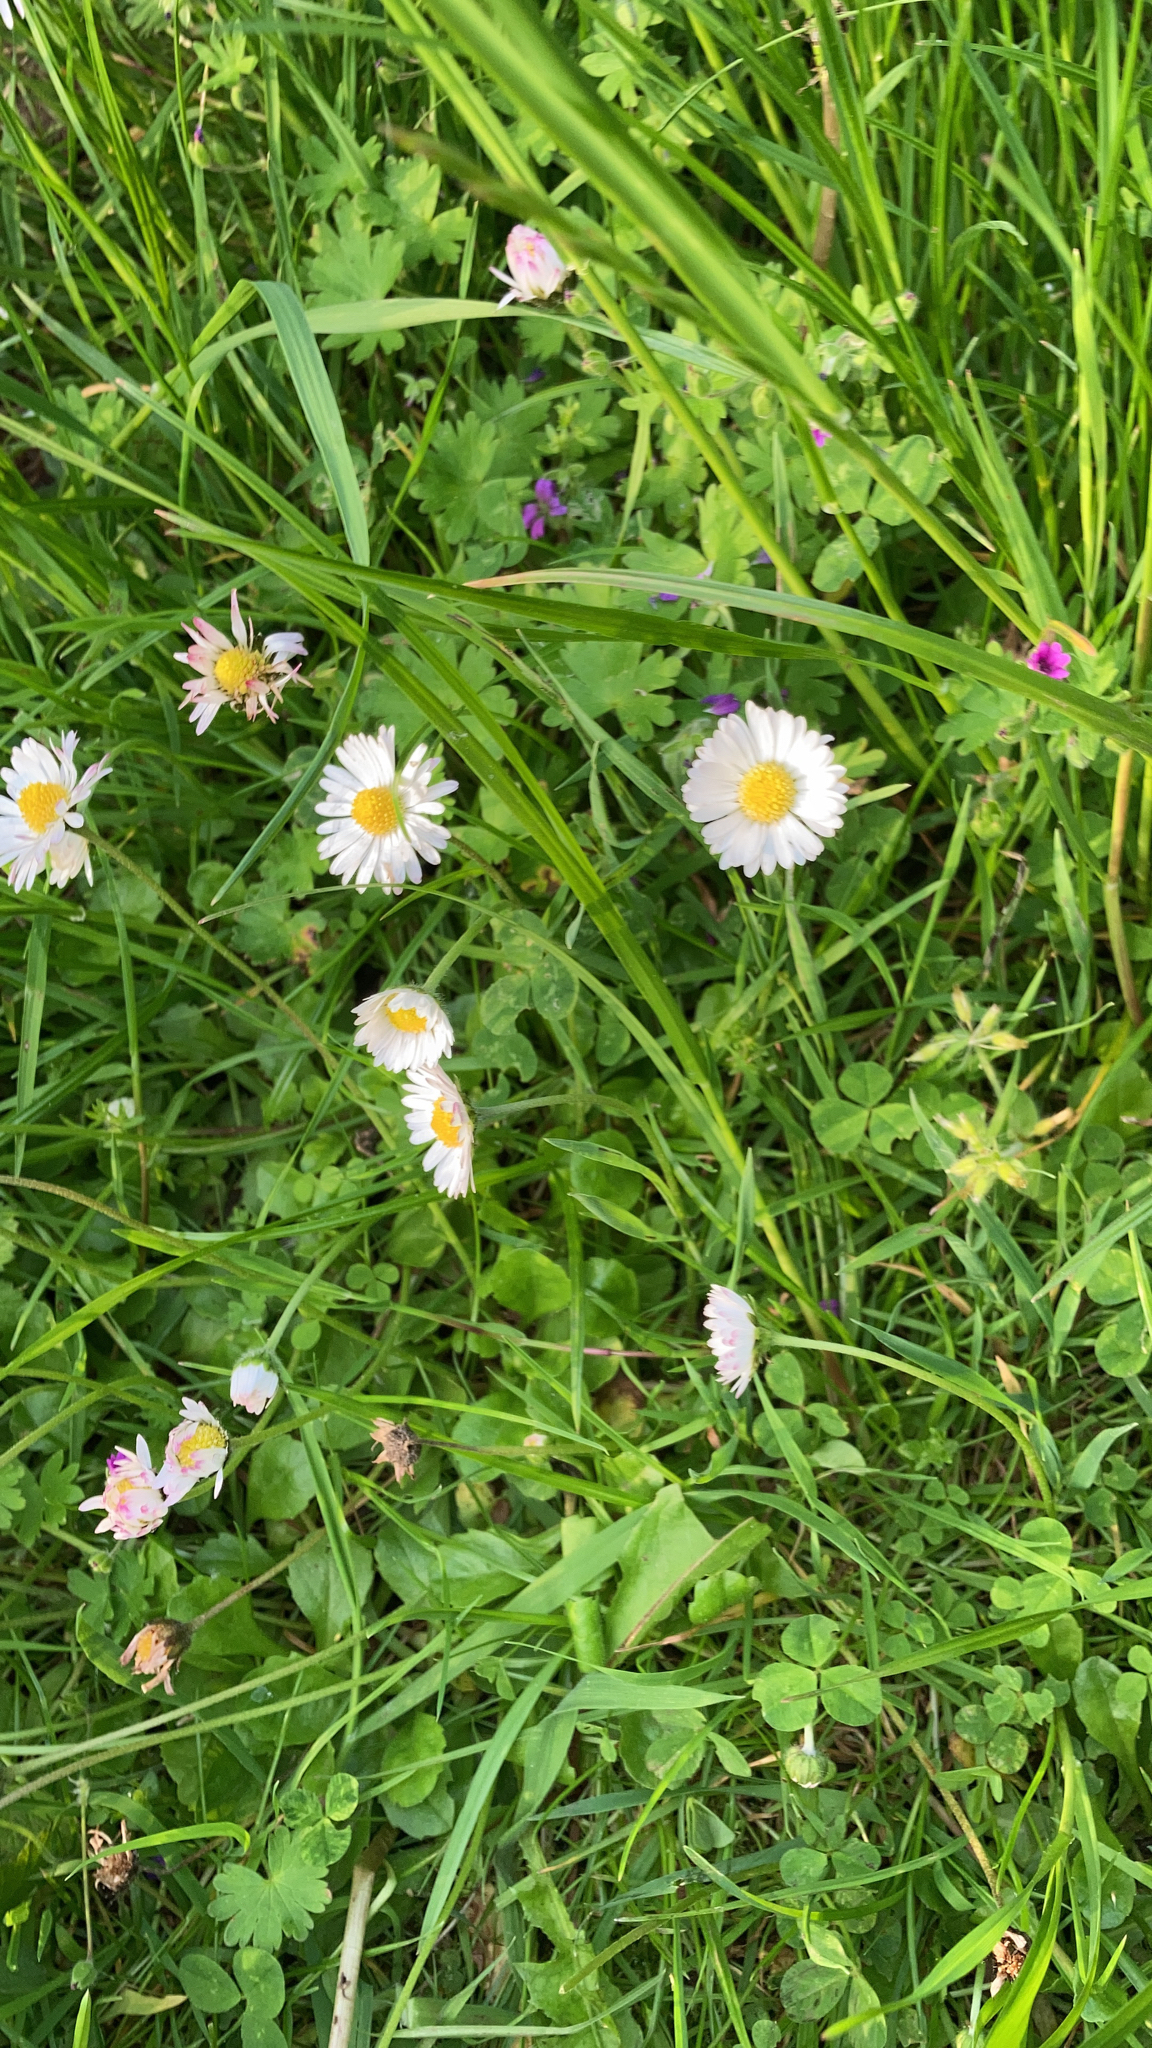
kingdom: Plantae
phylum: Tracheophyta
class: Magnoliopsida
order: Asterales
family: Asteraceae
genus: Bellis
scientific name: Bellis perennis
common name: Lawndaisy
